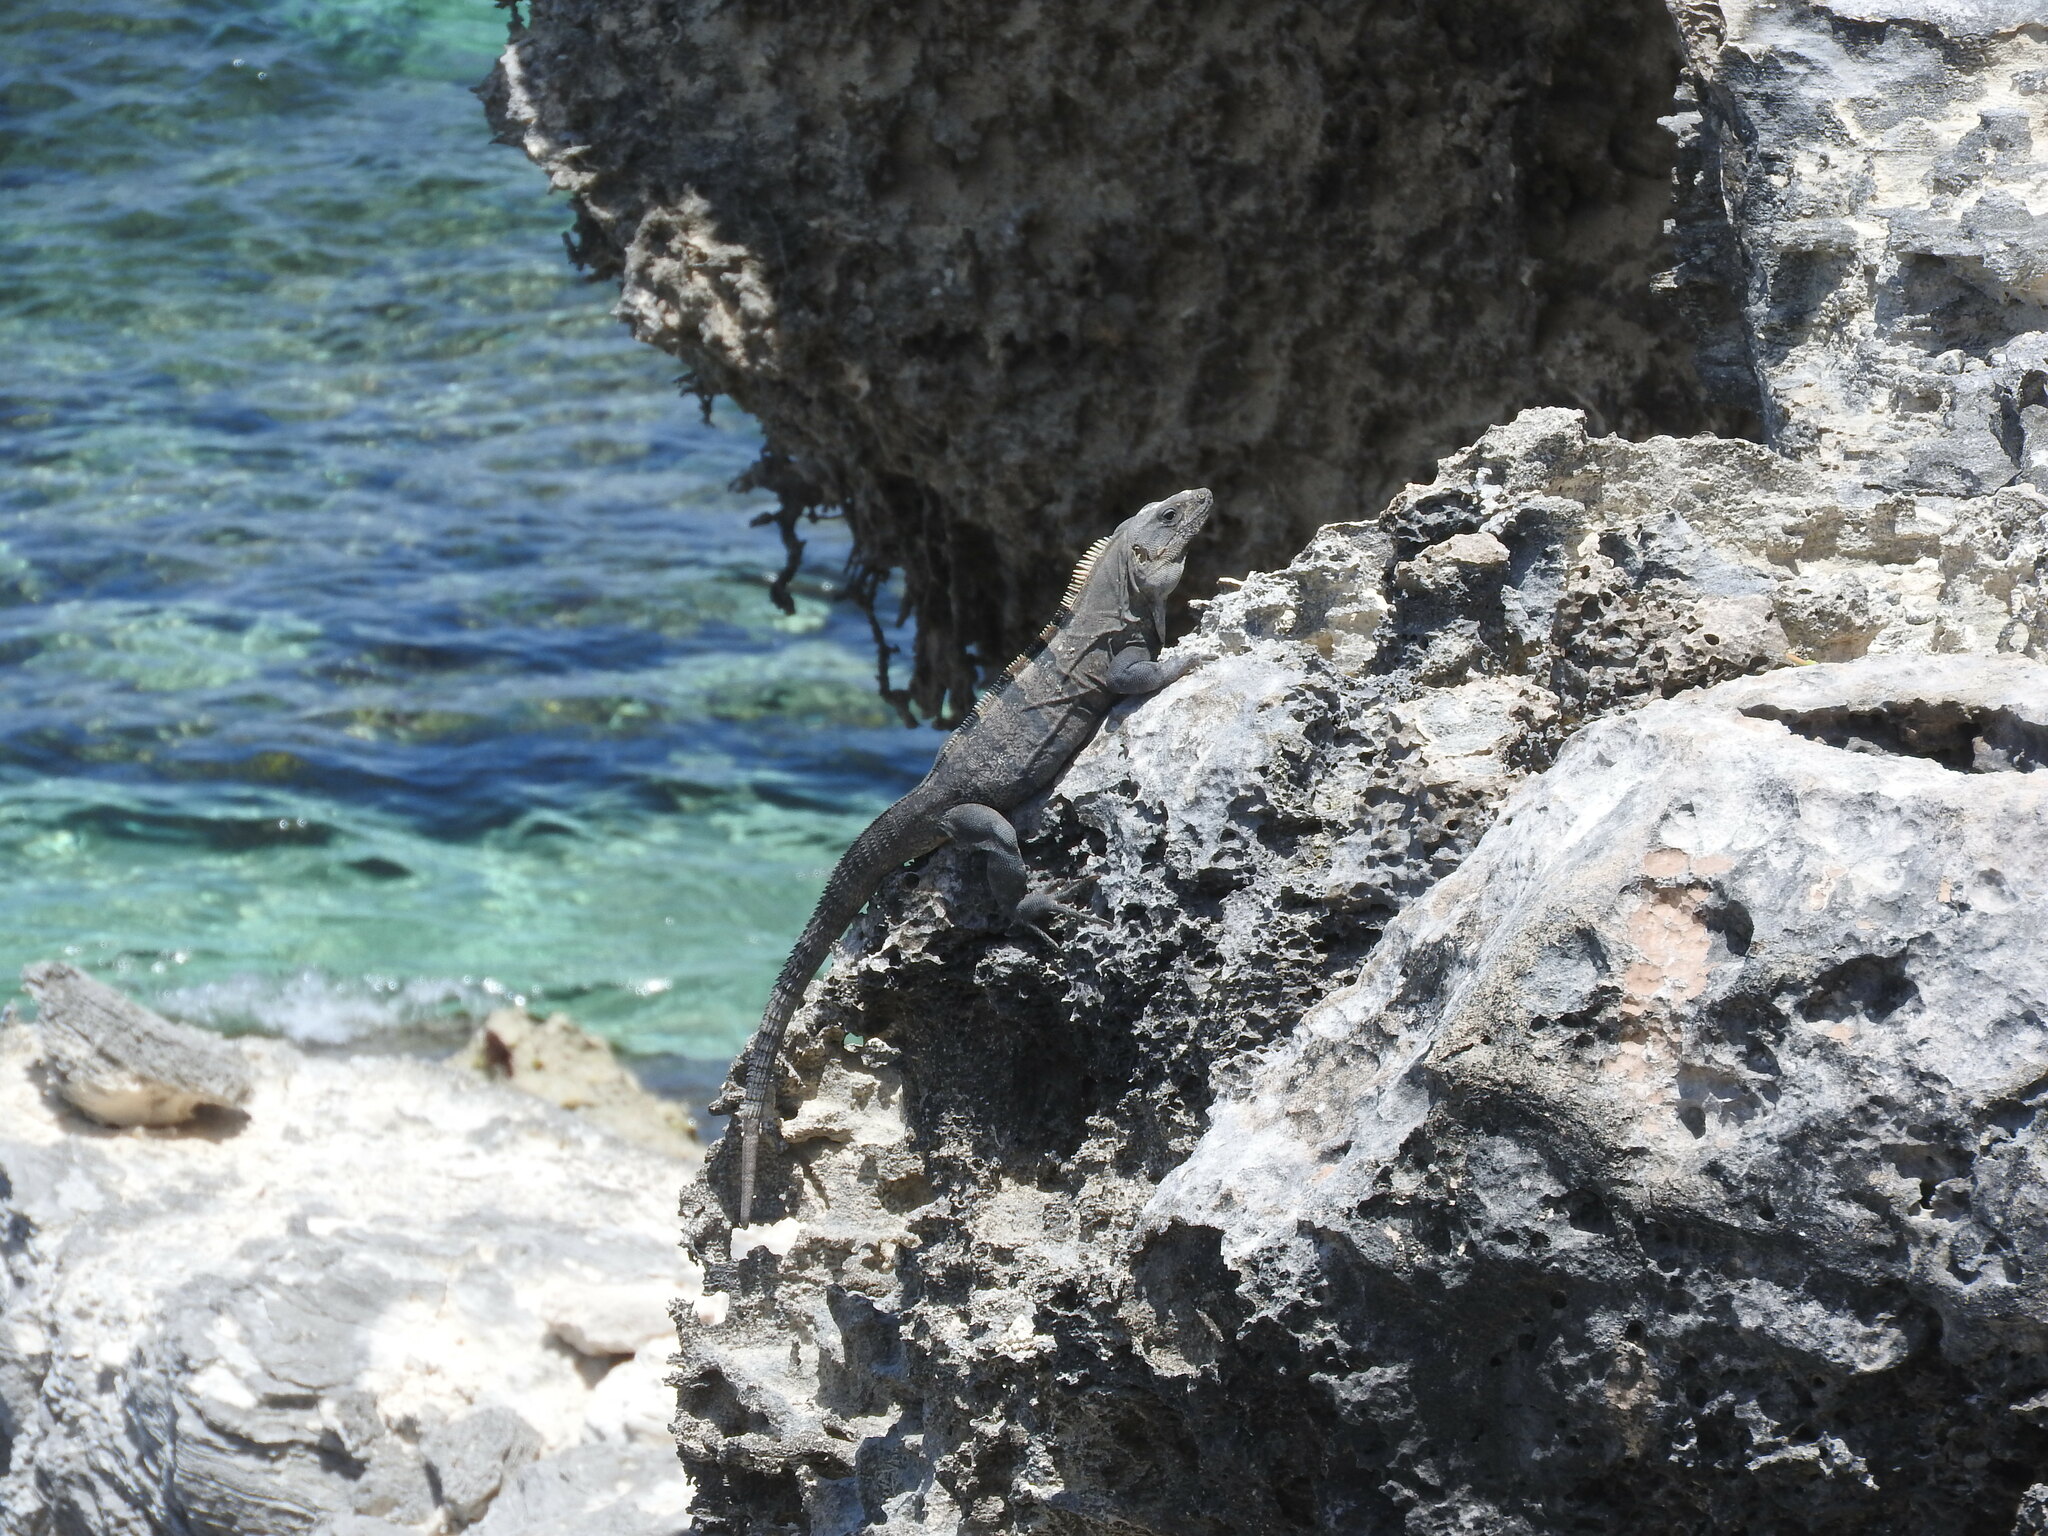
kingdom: Animalia
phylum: Chordata
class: Squamata
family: Iguanidae
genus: Ctenosaura
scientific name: Ctenosaura similis
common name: Black spiny-tailed iguana
